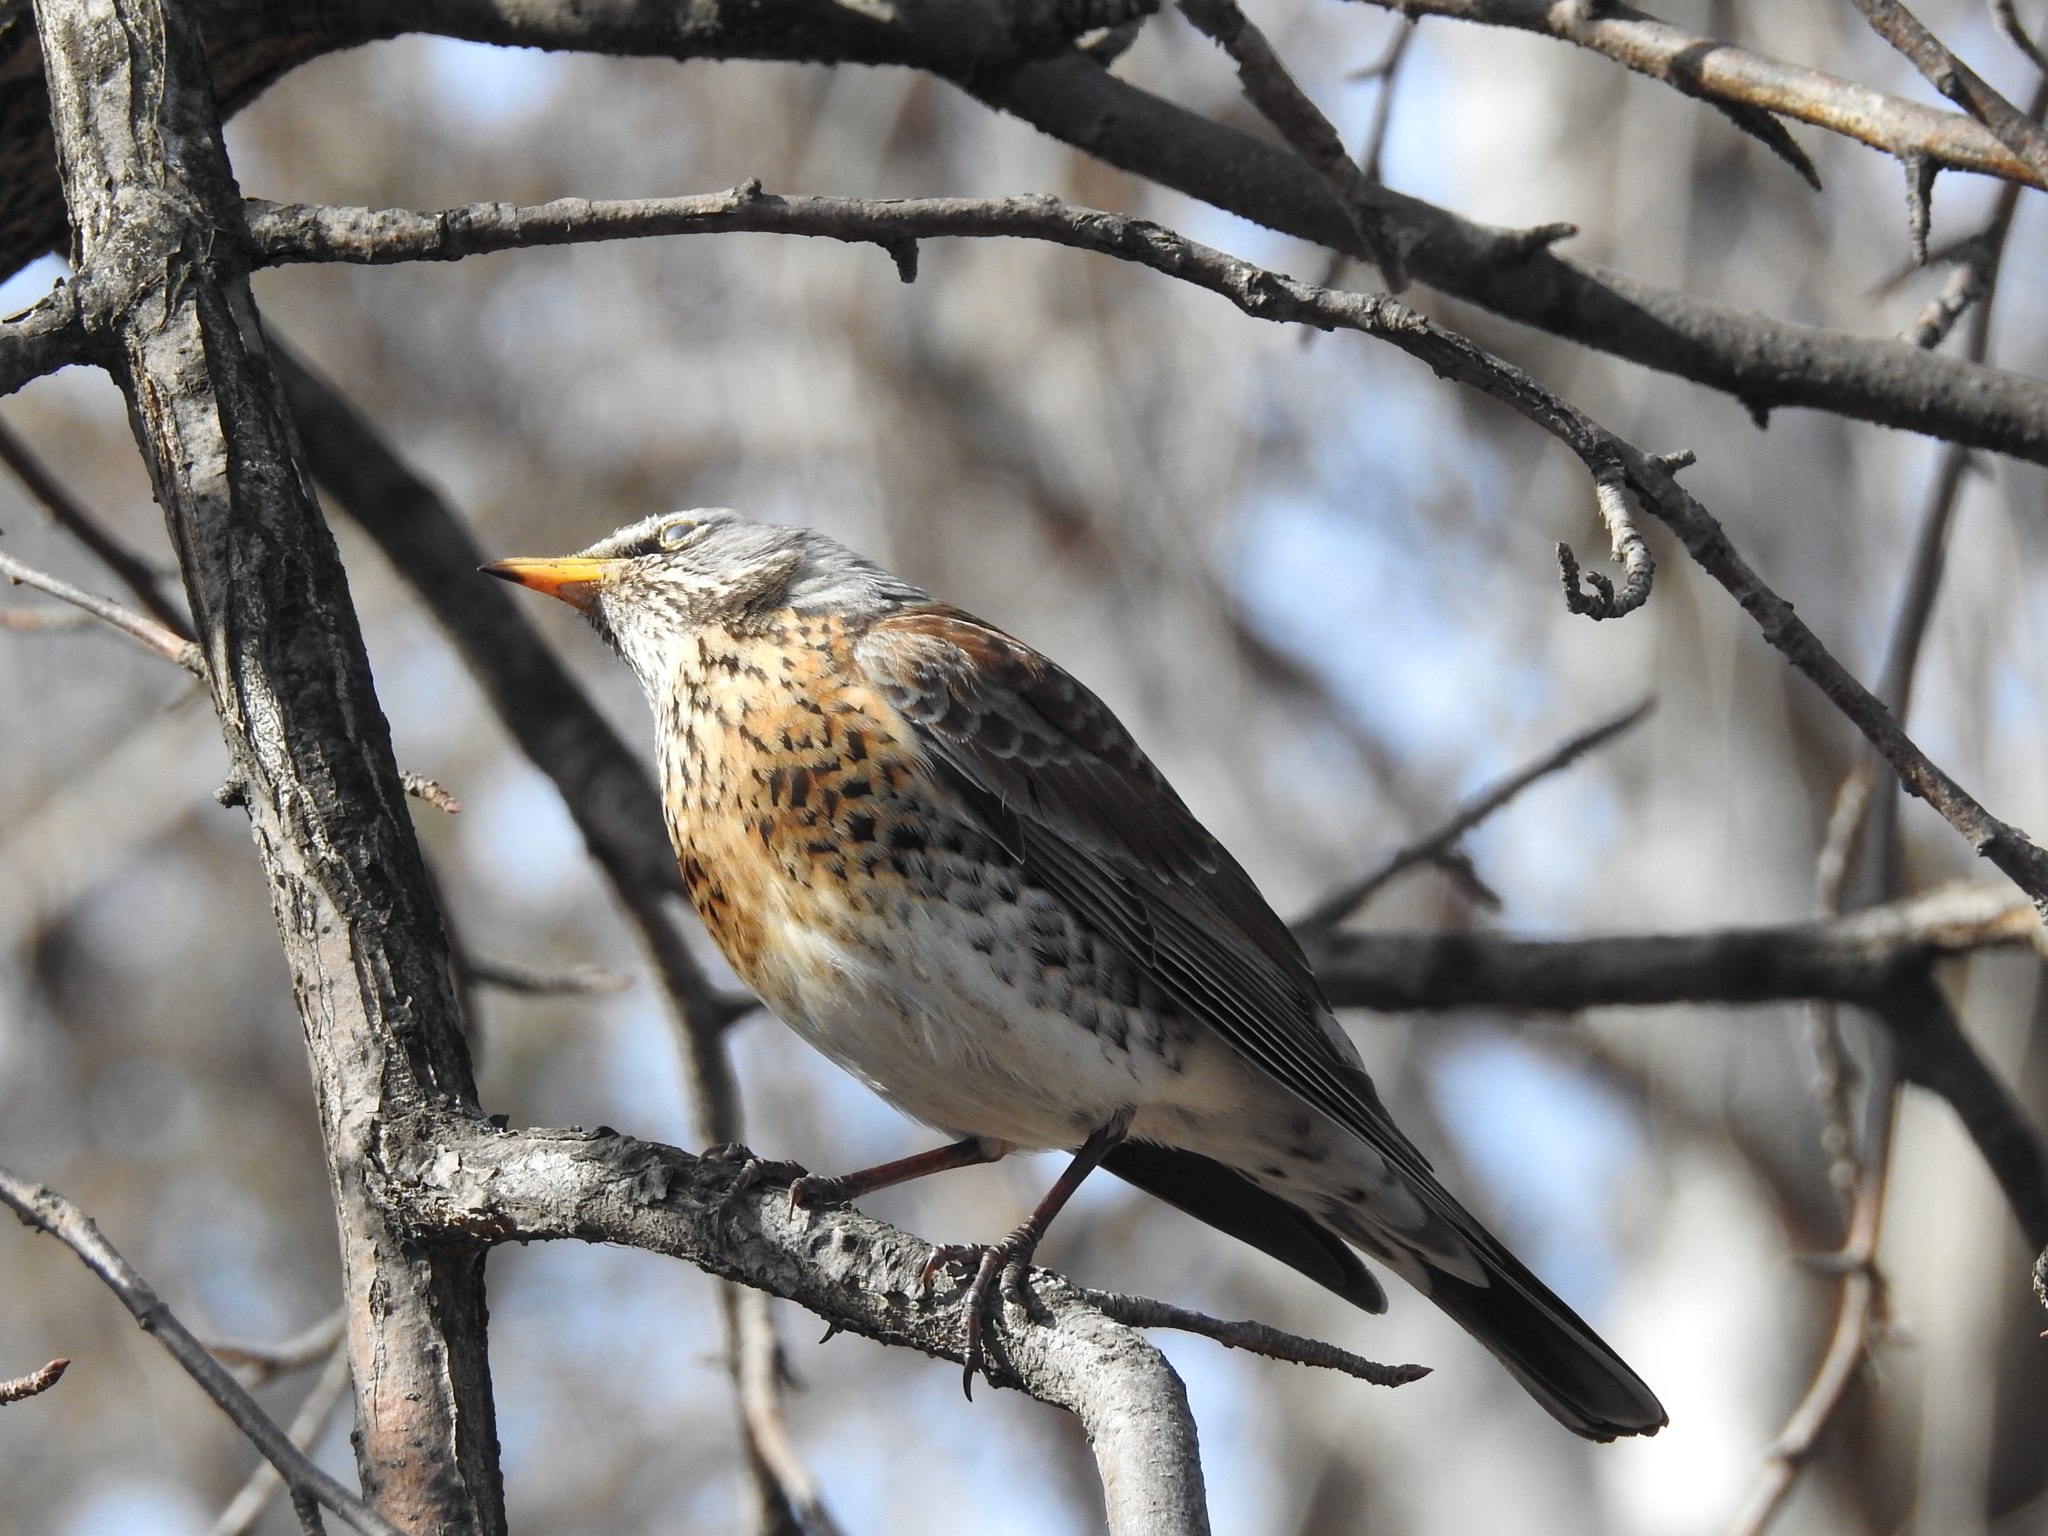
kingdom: Animalia
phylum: Chordata
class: Aves
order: Passeriformes
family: Turdidae
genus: Turdus
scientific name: Turdus pilaris
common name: Fieldfare
